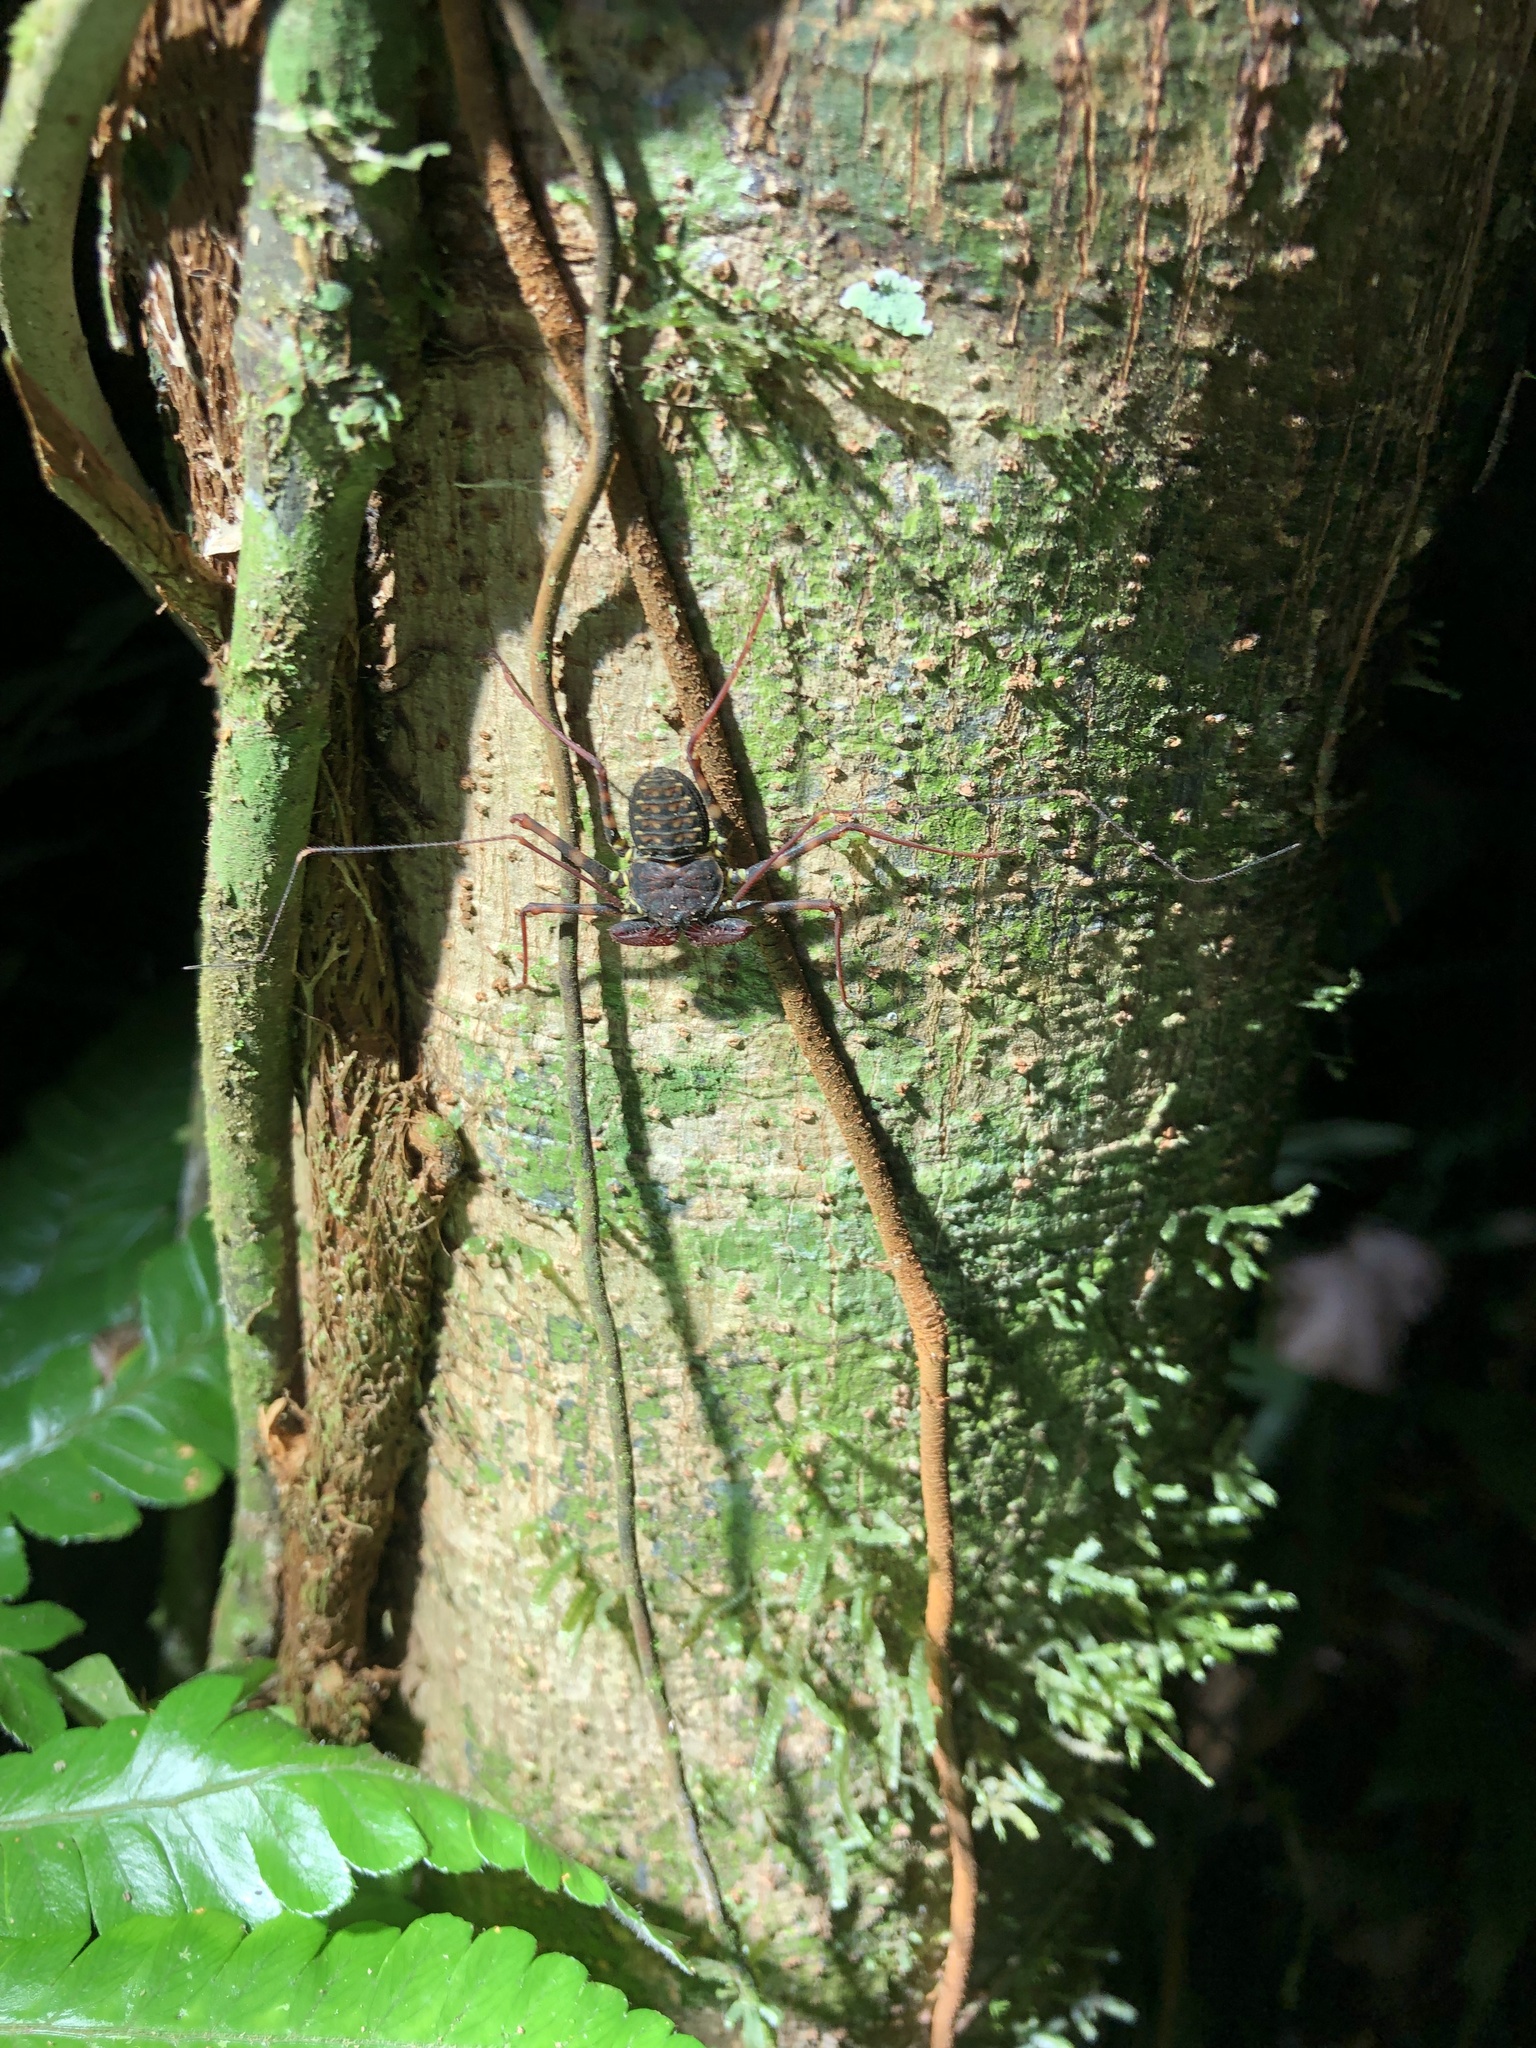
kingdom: Animalia
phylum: Arthropoda
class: Arachnida
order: Amblypygi
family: Phrynidae
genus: Phrynus
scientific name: Phrynus pseudoparvulus
